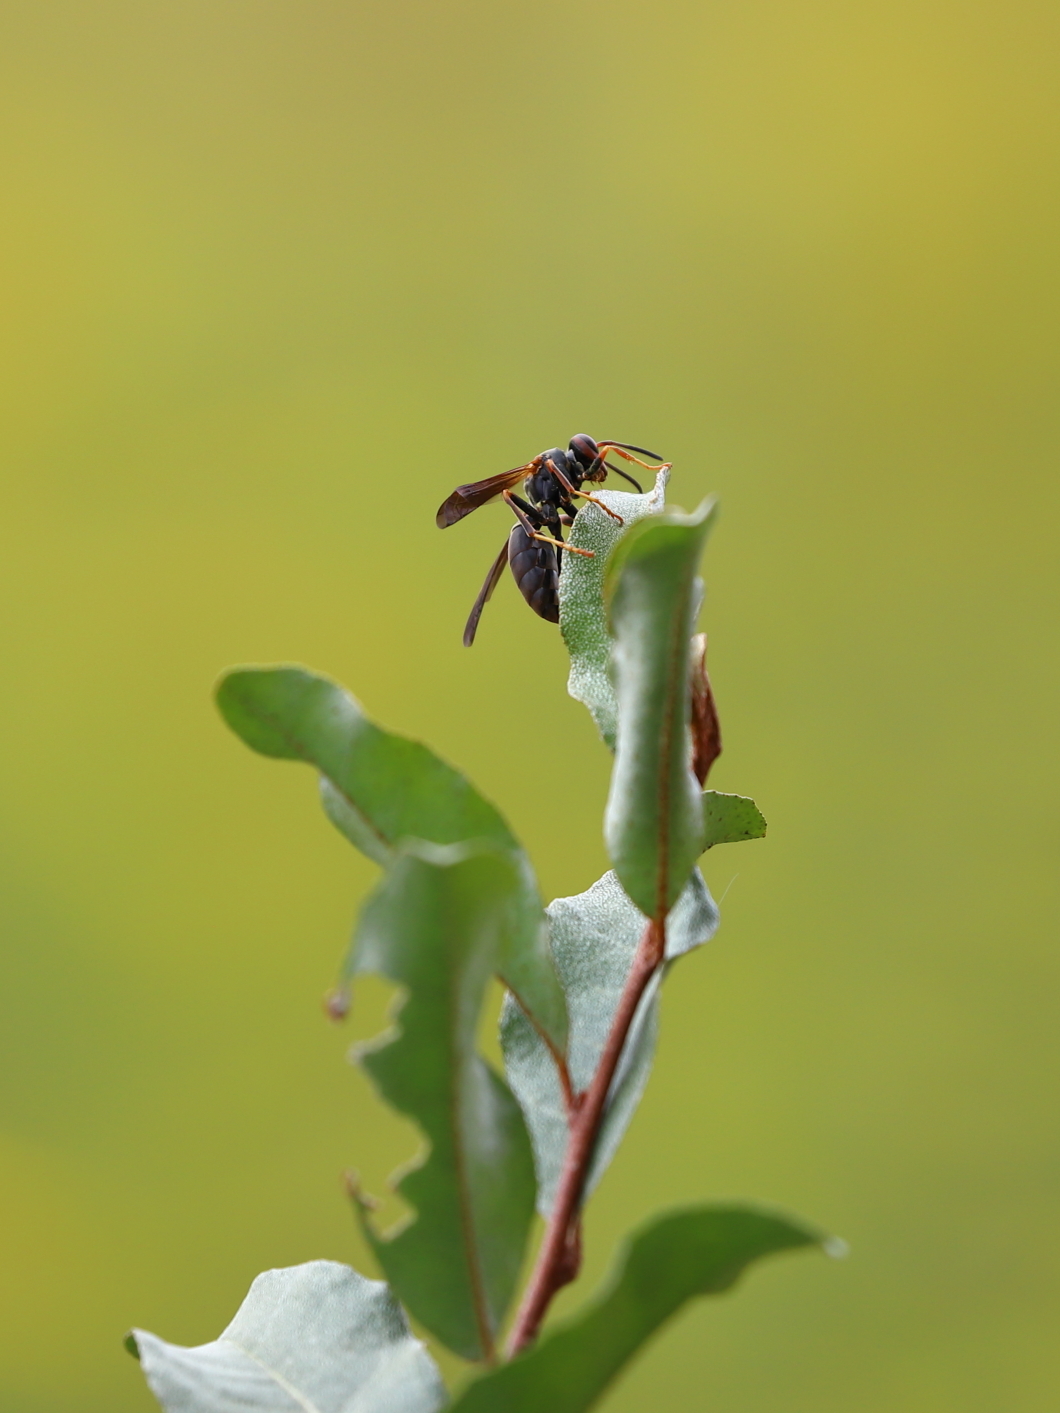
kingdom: Animalia
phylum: Arthropoda
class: Insecta
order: Hymenoptera
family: Eumenidae
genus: Polistes
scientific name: Polistes
